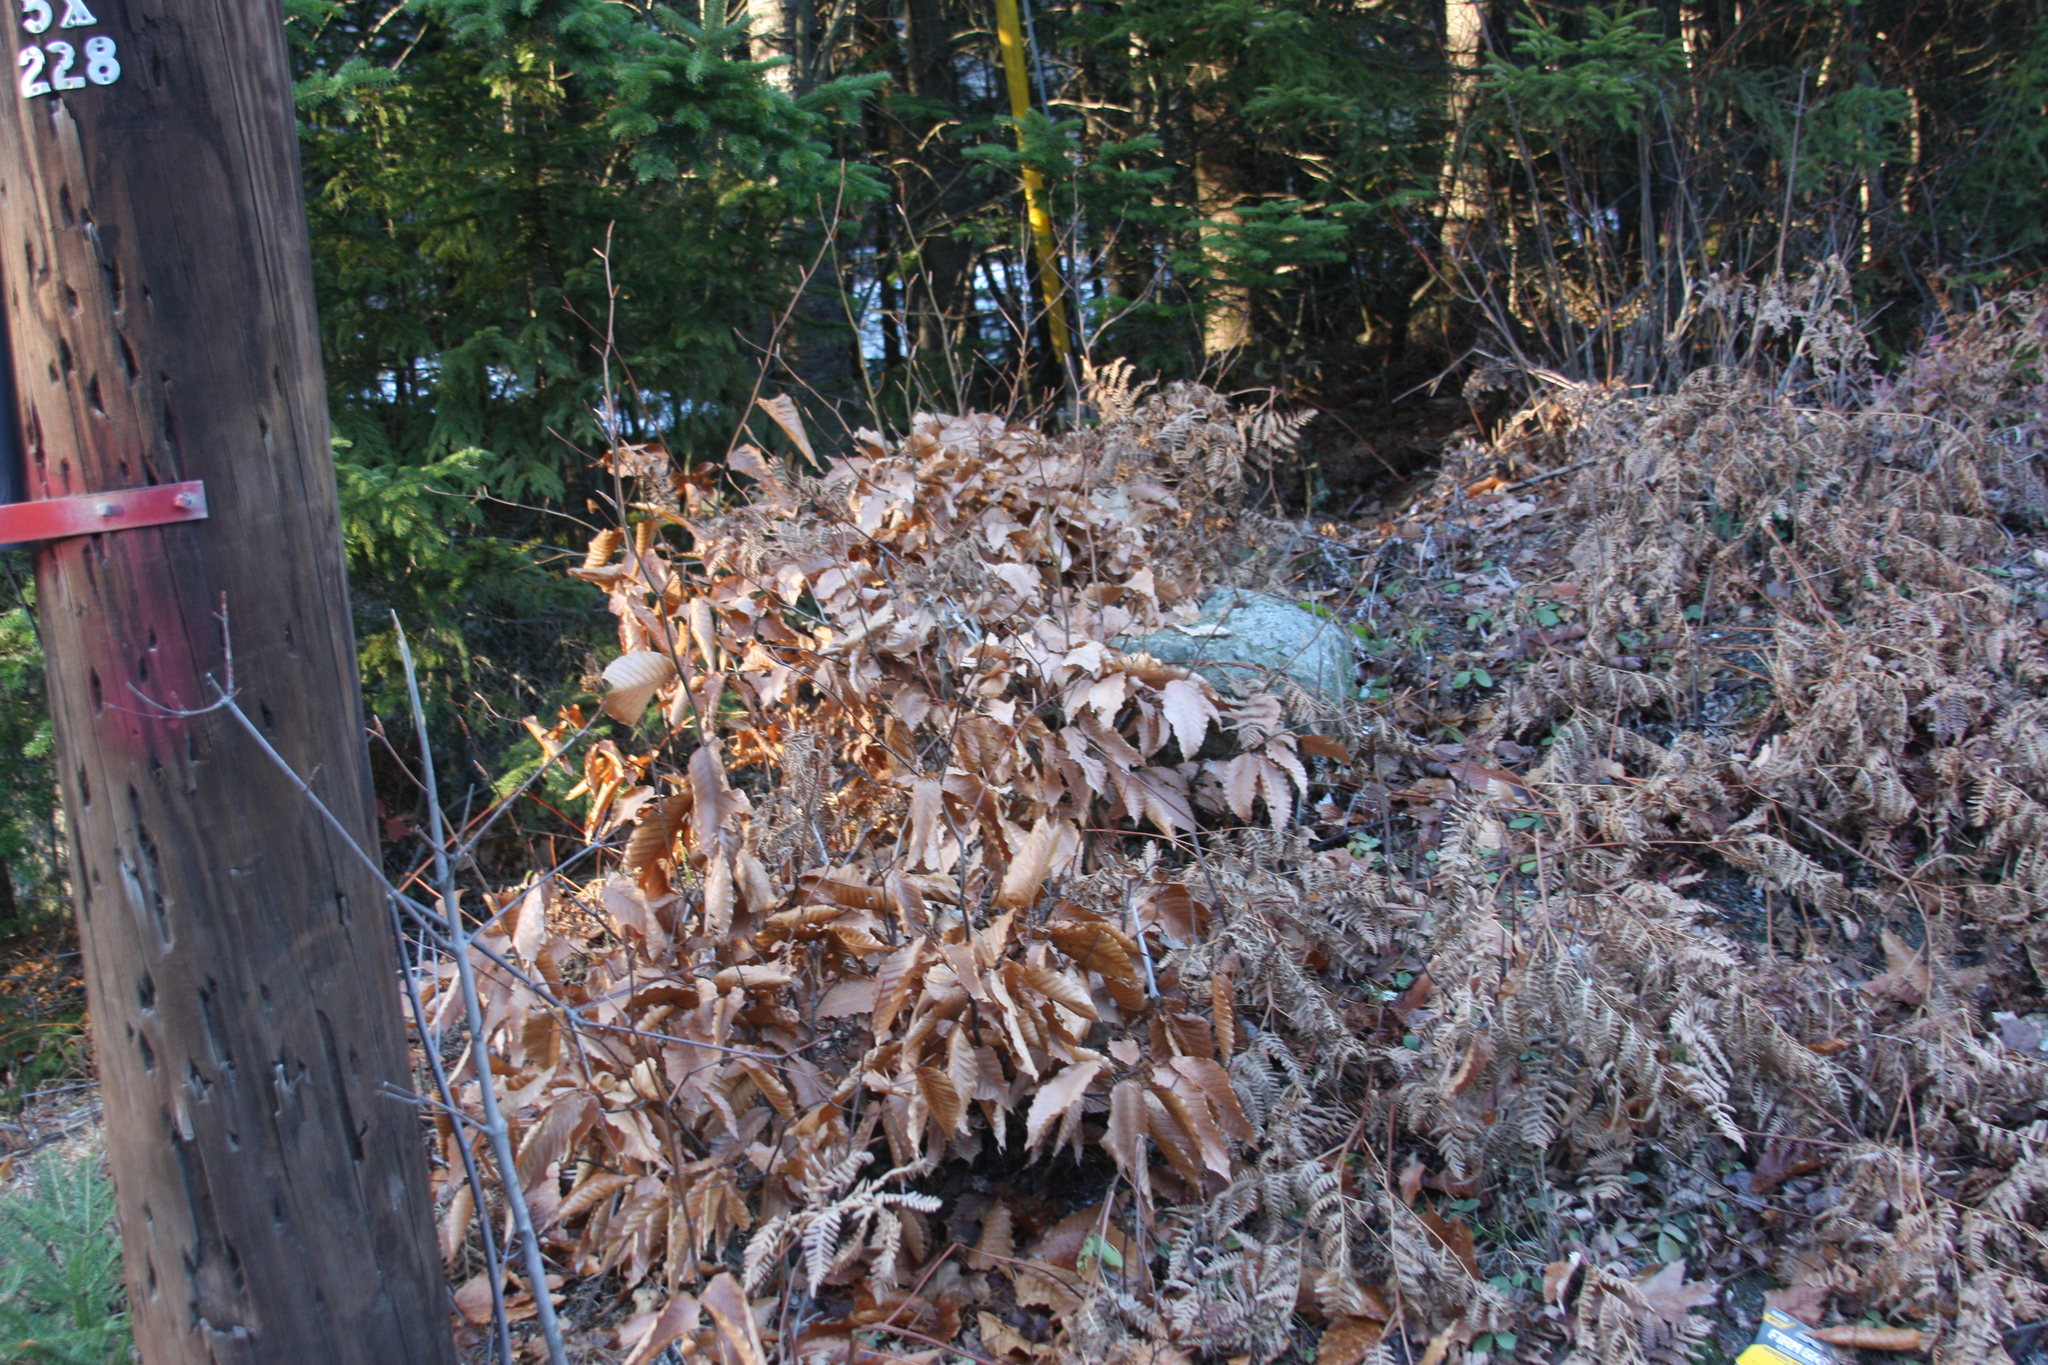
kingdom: Plantae
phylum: Tracheophyta
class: Magnoliopsida
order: Fagales
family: Fagaceae
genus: Fagus
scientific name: Fagus grandifolia
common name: American beech
